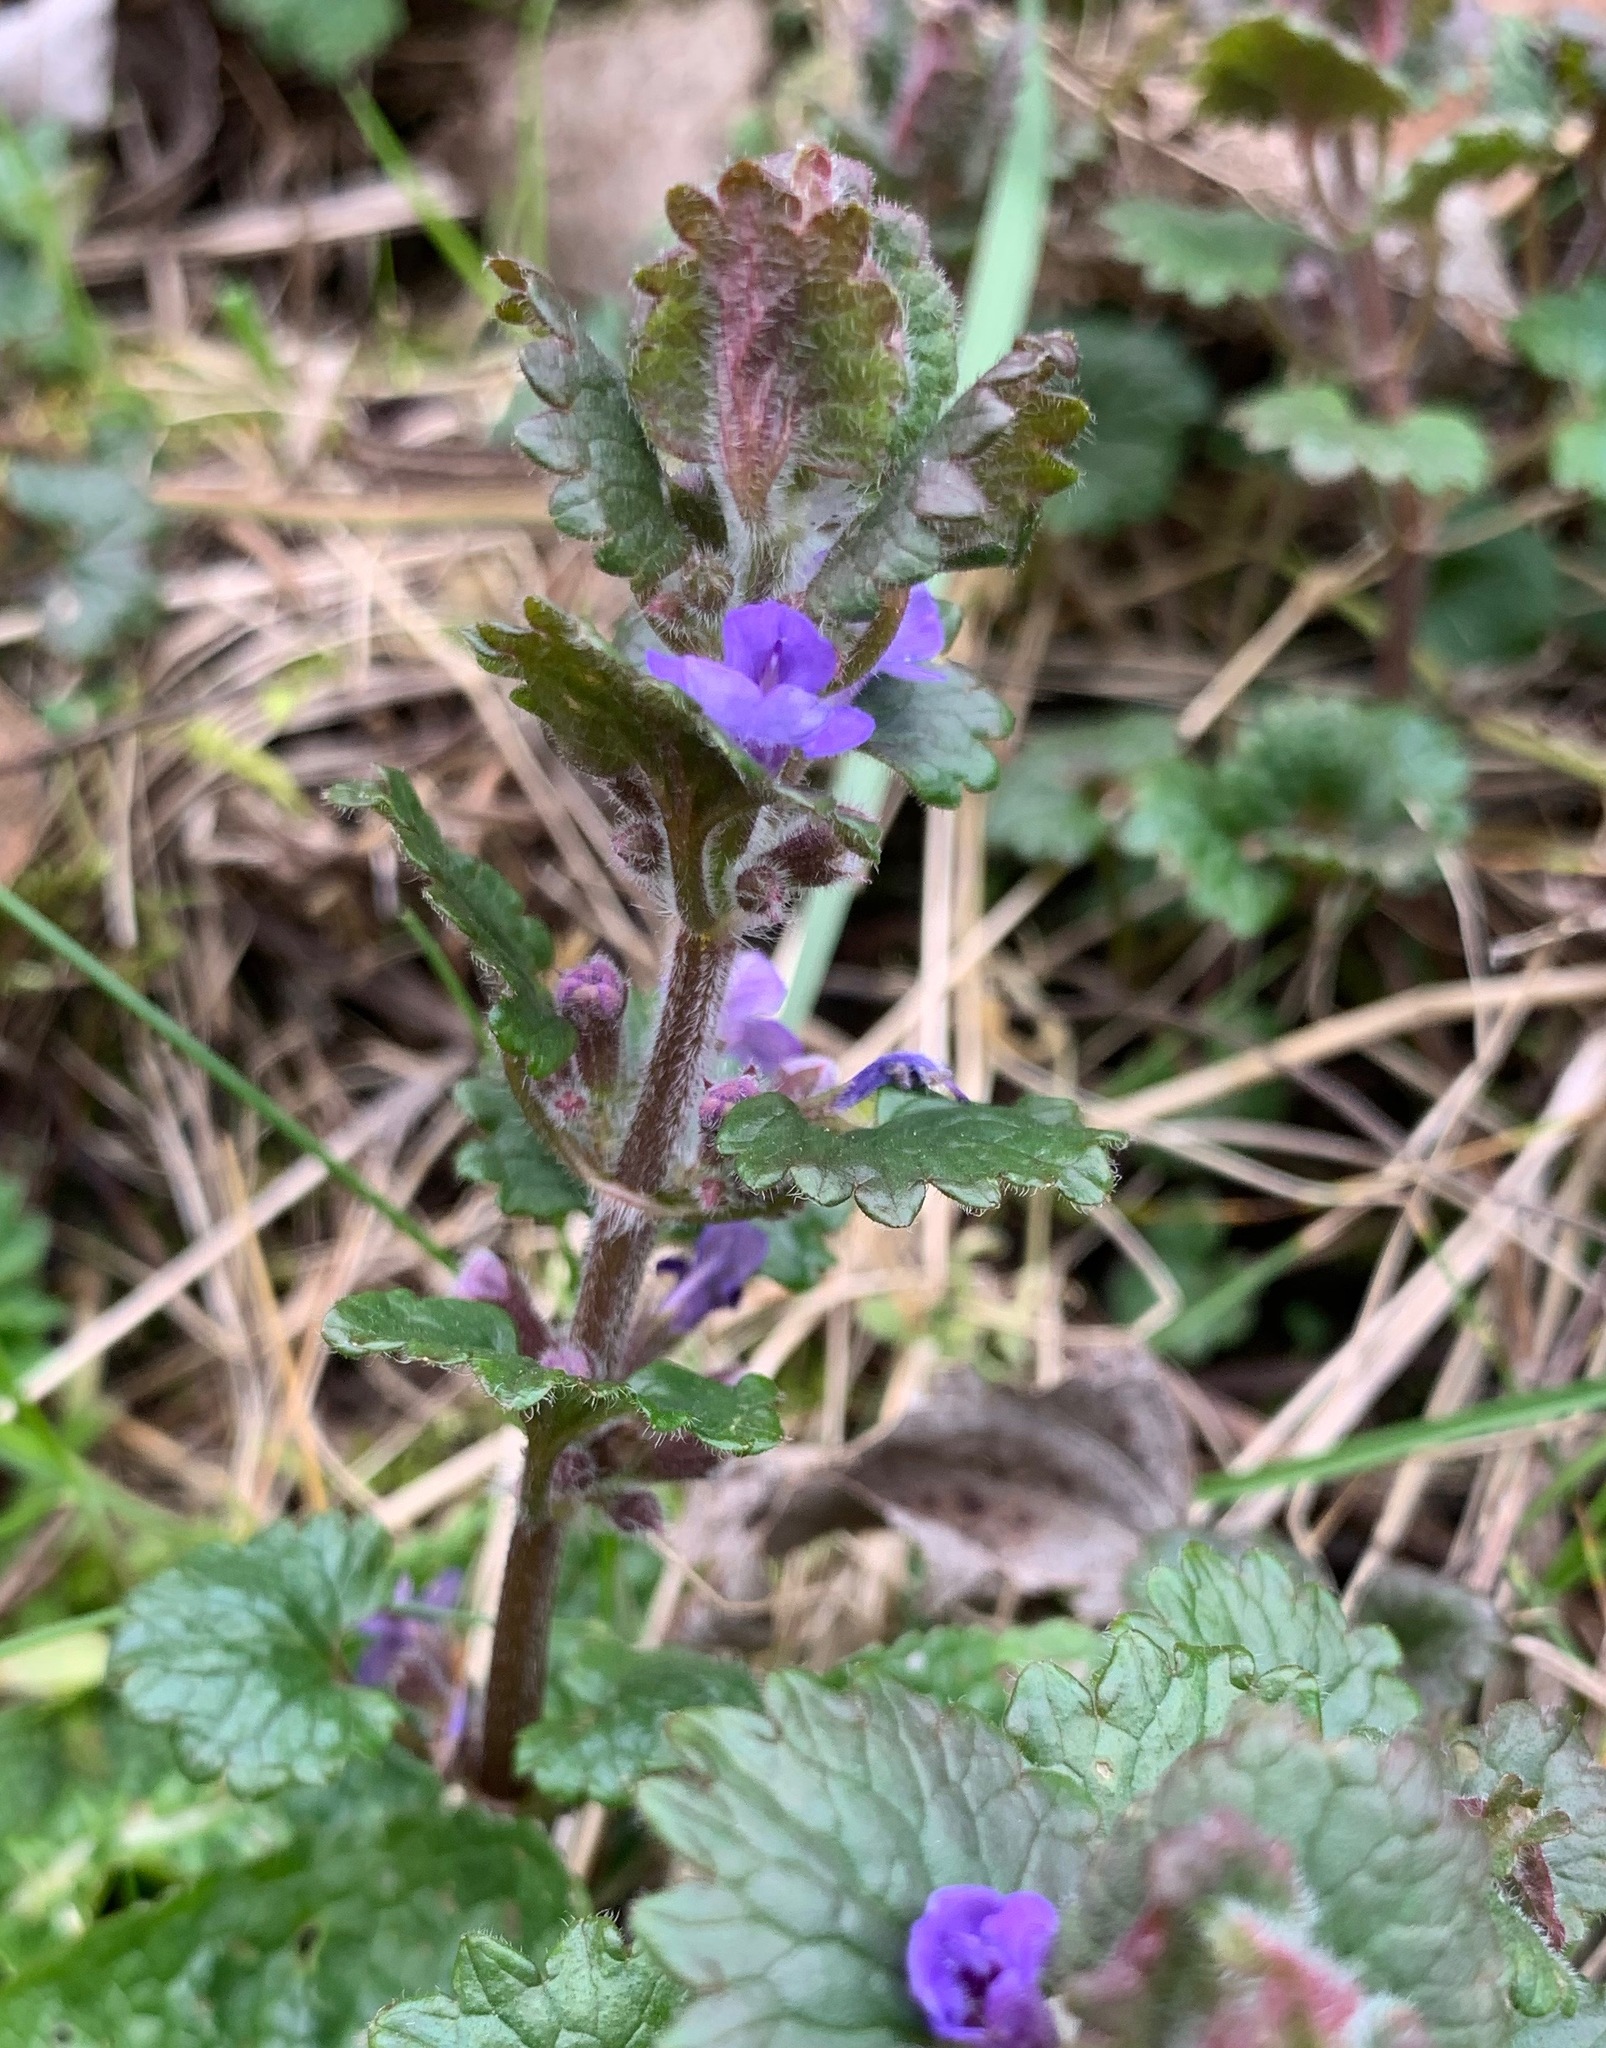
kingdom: Plantae
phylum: Tracheophyta
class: Magnoliopsida
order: Lamiales
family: Lamiaceae
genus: Glechoma
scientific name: Glechoma hederacea
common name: Ground ivy
